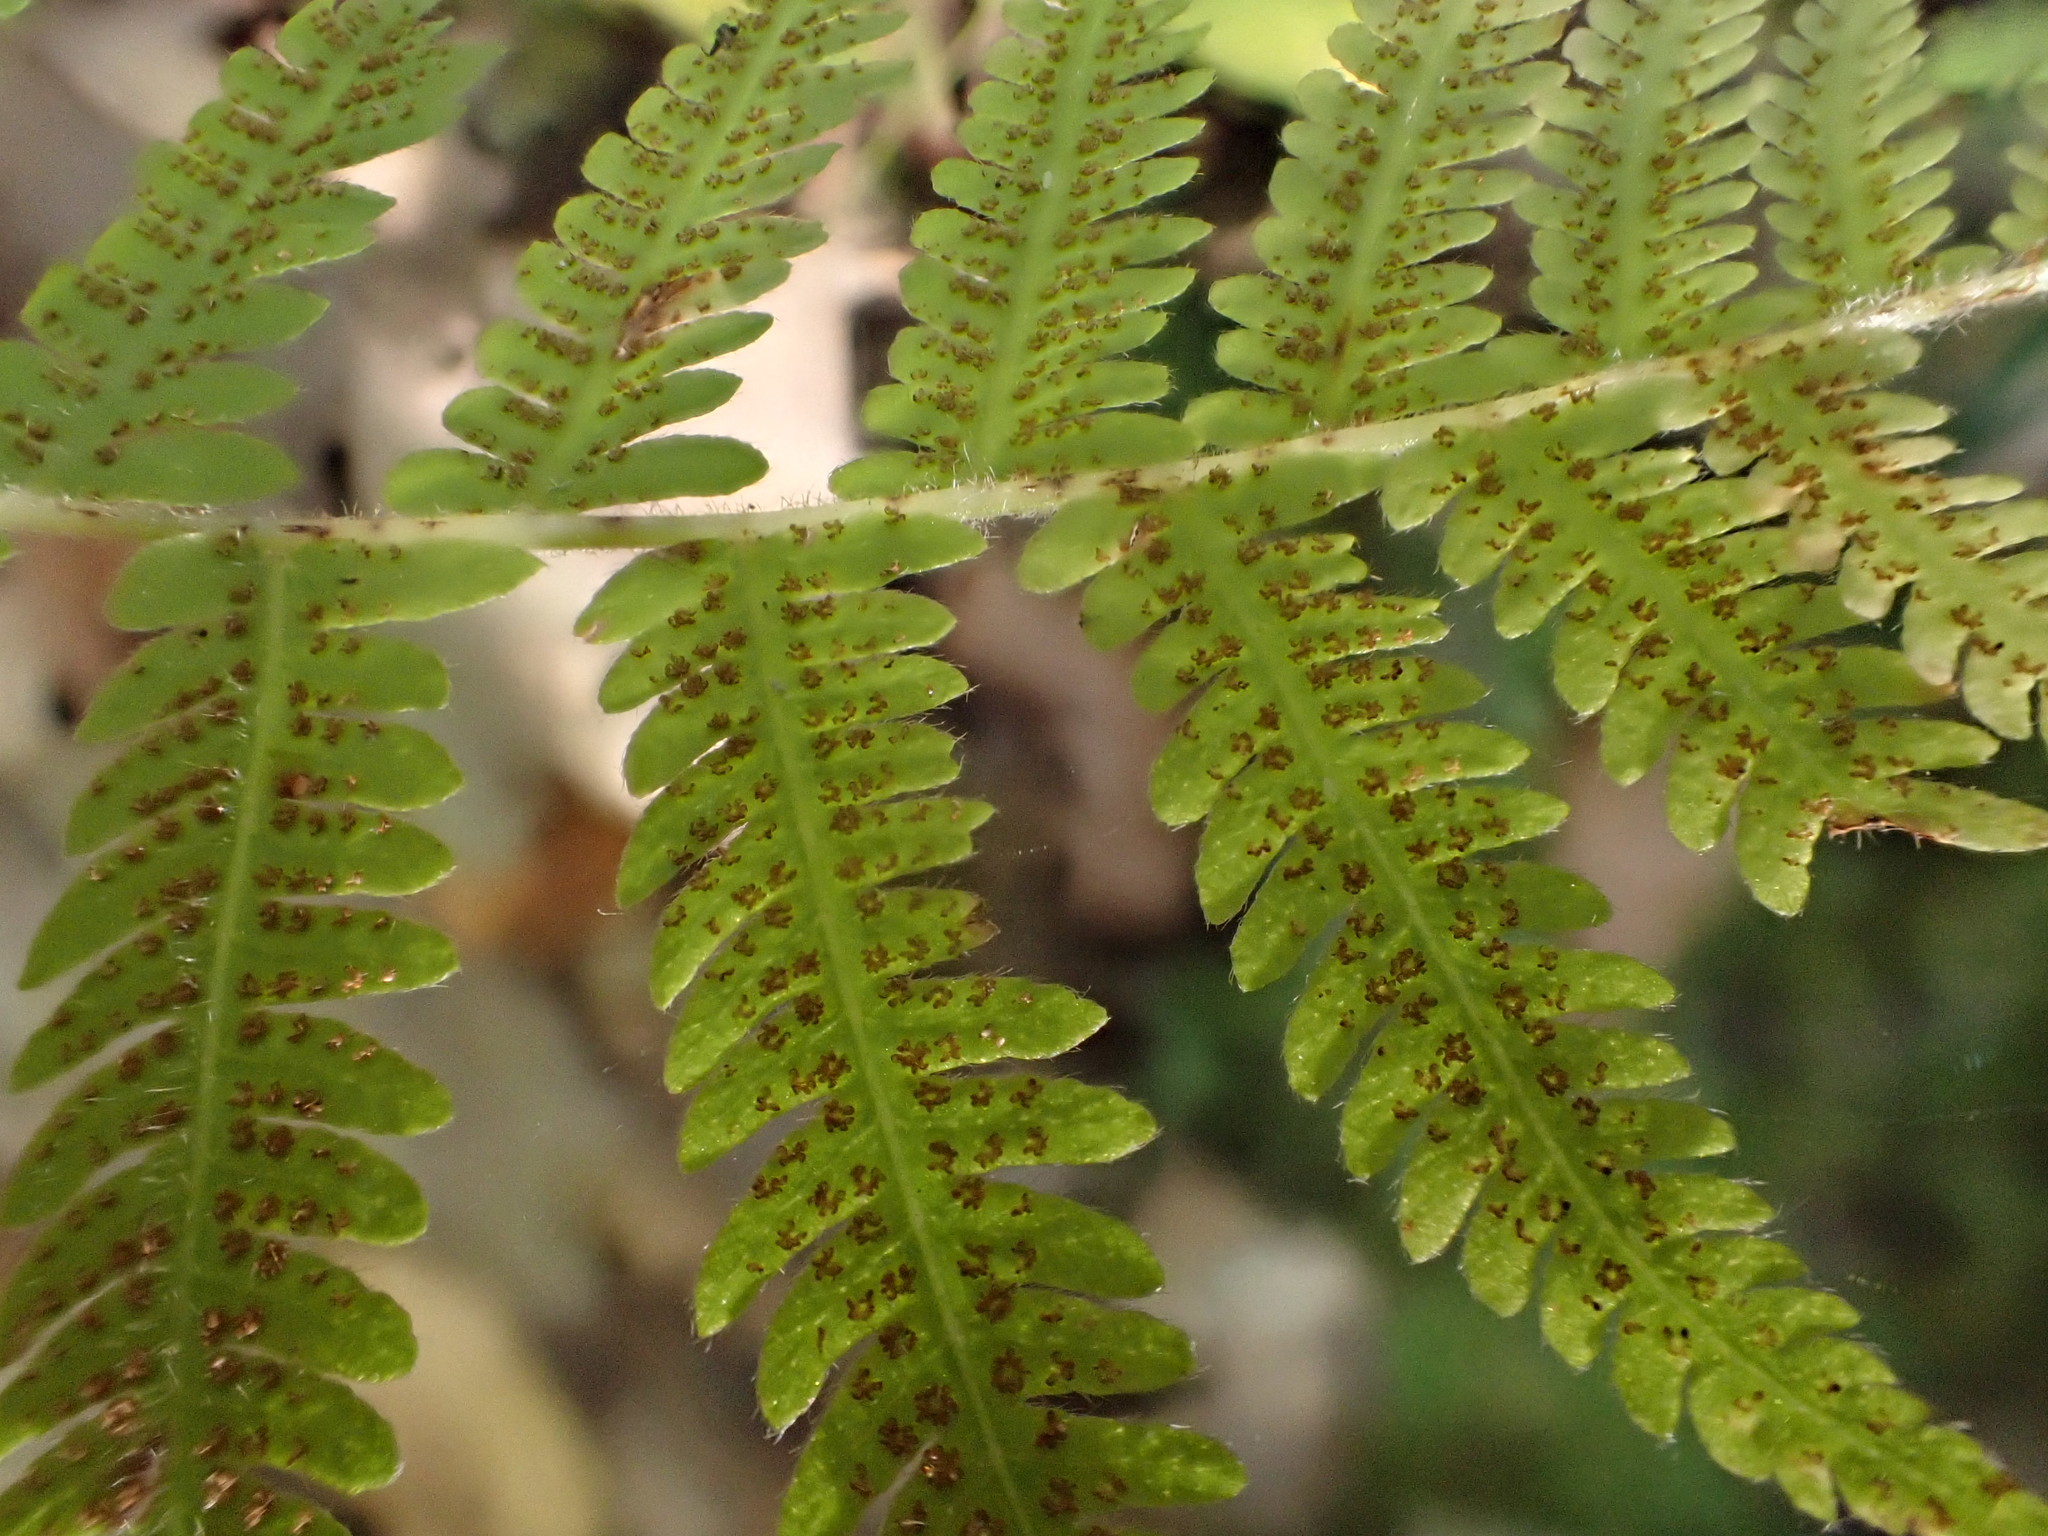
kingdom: Plantae
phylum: Tracheophyta
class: Polypodiopsida
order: Polypodiales
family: Thelypteridaceae
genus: Amauropelta
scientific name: Amauropelta noveboracensis
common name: New york fern
